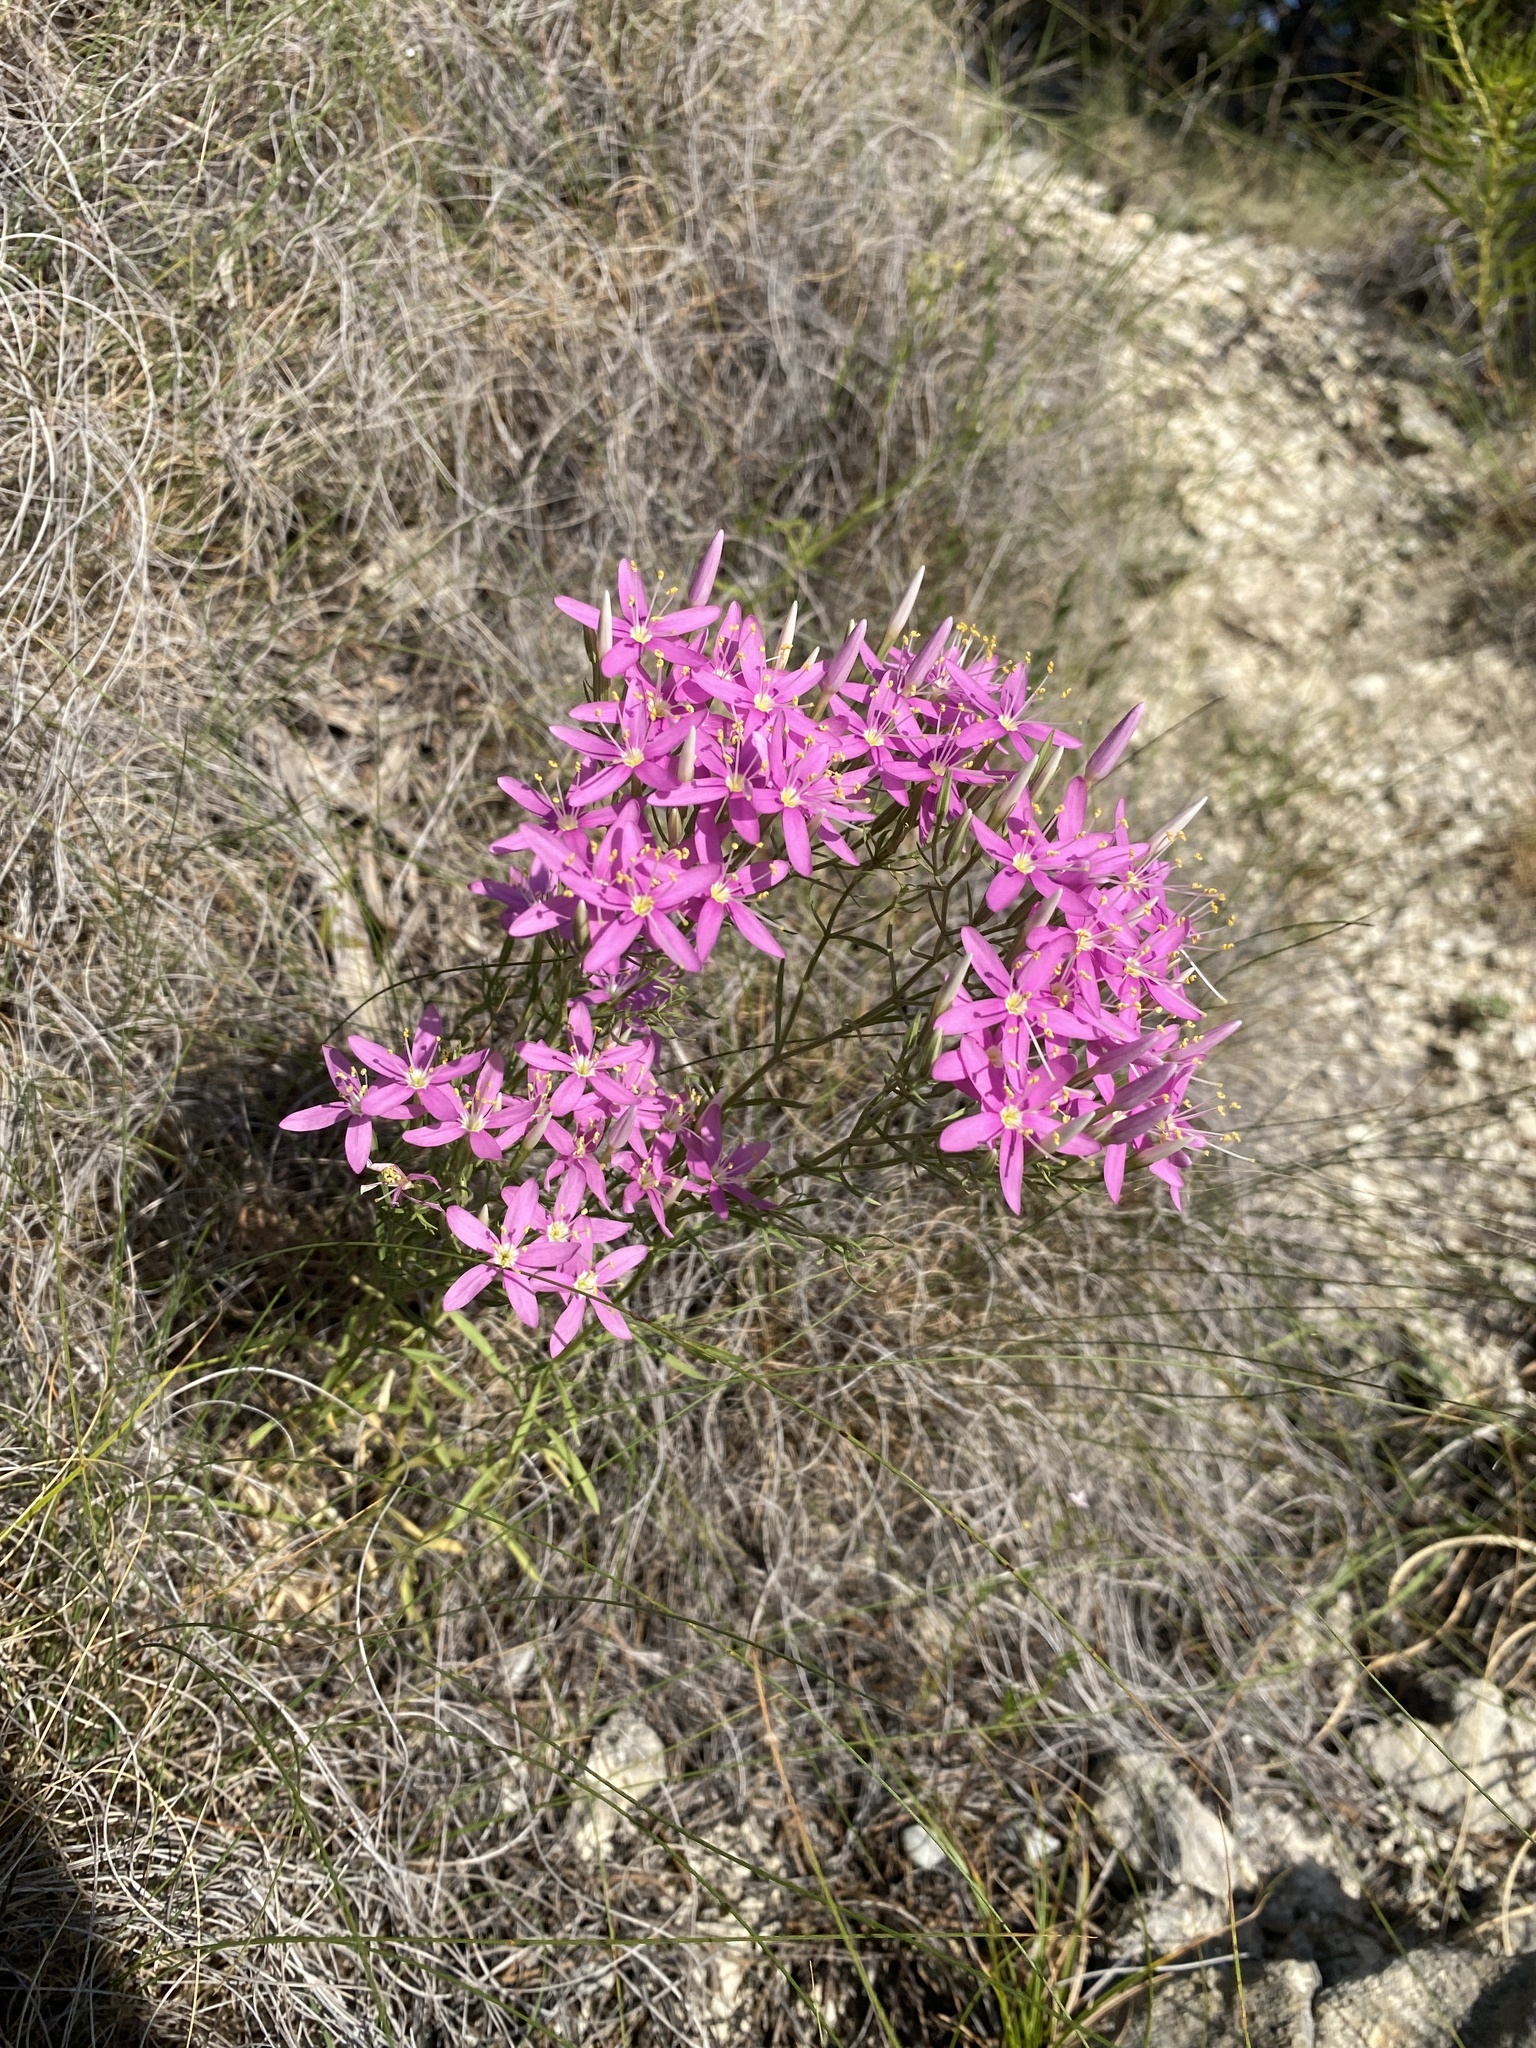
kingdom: Plantae
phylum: Tracheophyta
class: Magnoliopsida
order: Gentianales
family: Gentianaceae
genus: Zeltnera
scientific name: Zeltnera beyrichii
